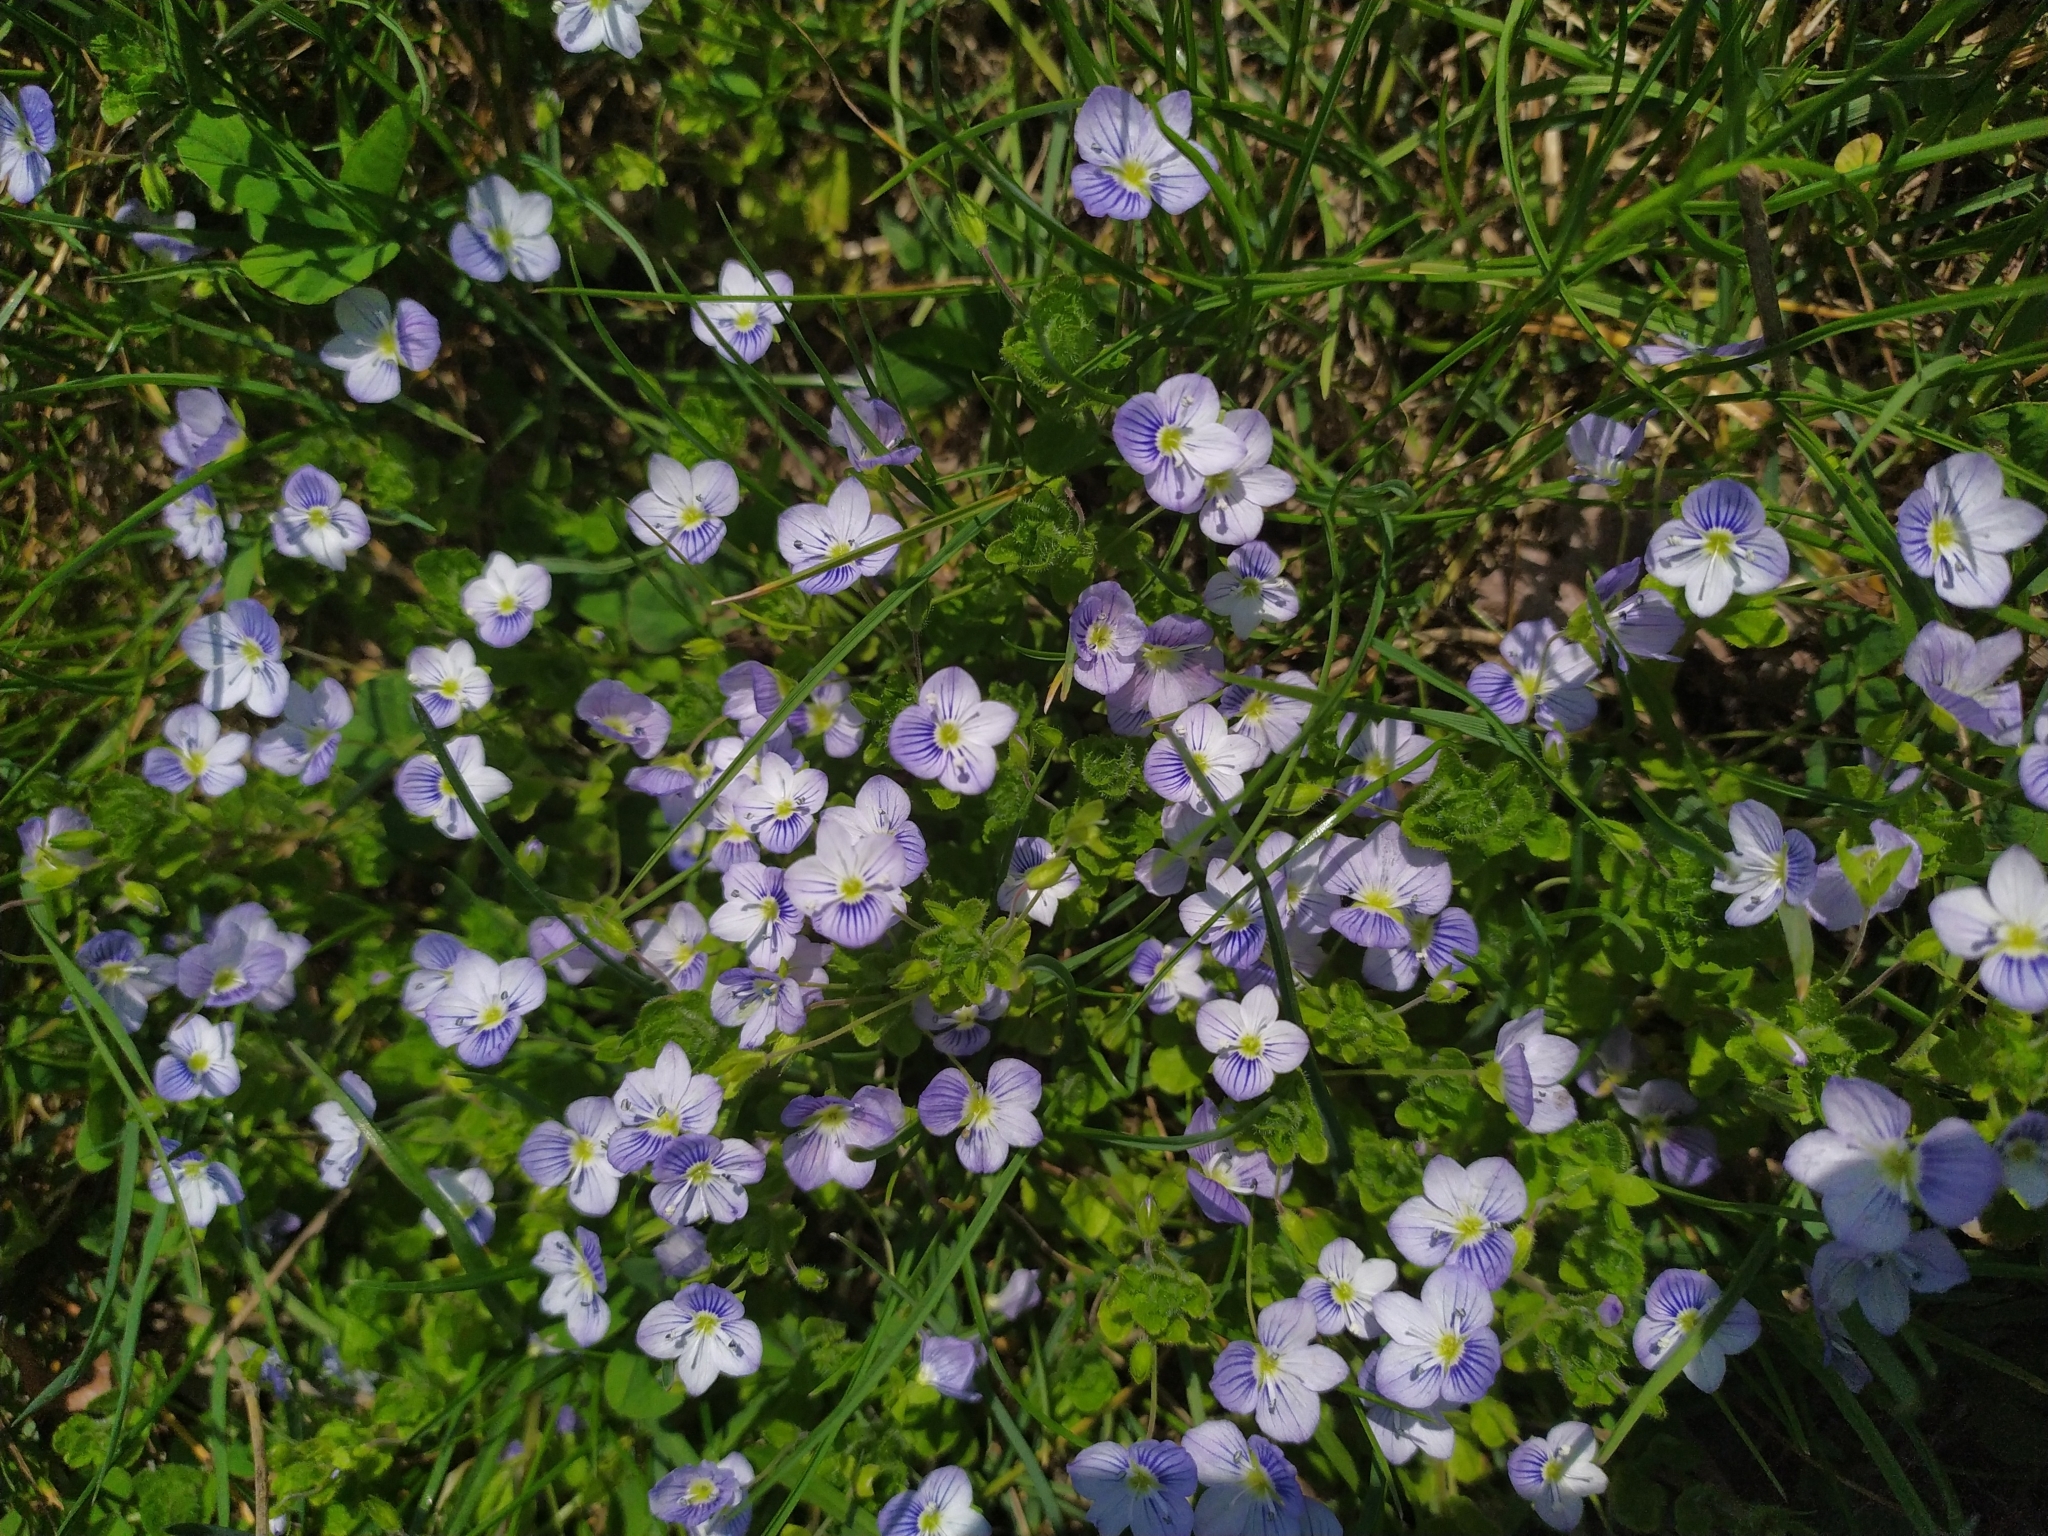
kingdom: Plantae
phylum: Tracheophyta
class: Magnoliopsida
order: Lamiales
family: Plantaginaceae
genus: Veronica
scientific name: Veronica filiformis
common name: Slender speedwell
